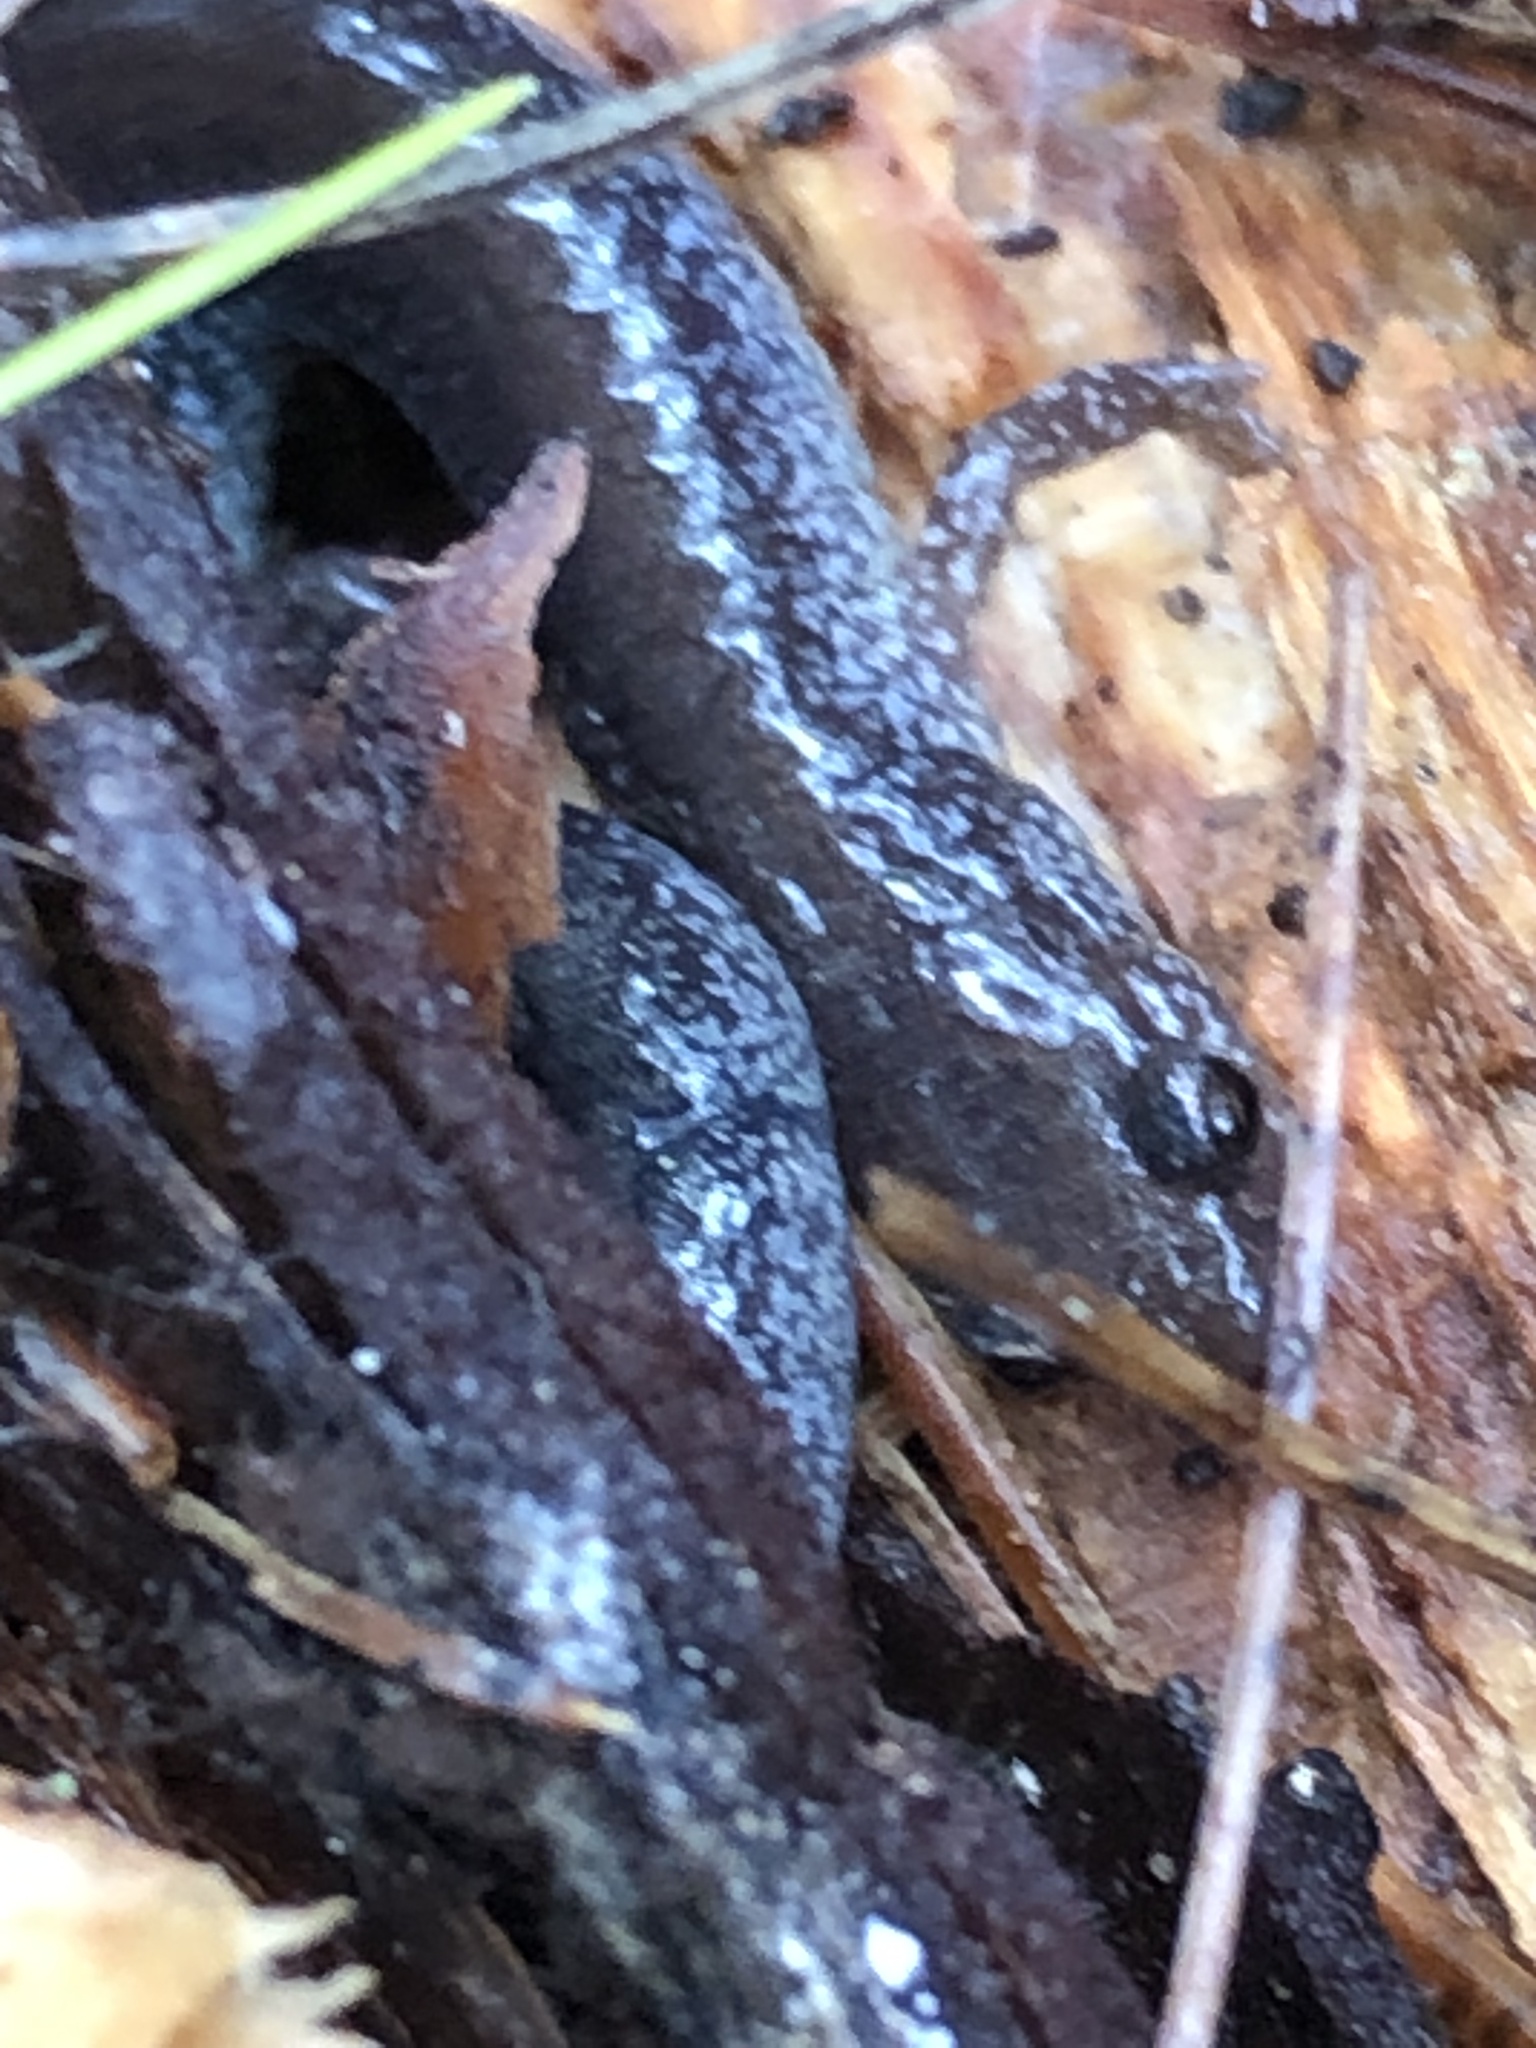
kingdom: Animalia
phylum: Chordata
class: Amphibia
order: Caudata
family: Plethodontidae
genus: Plethodon
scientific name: Plethodon cinereus
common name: Redback salamander
